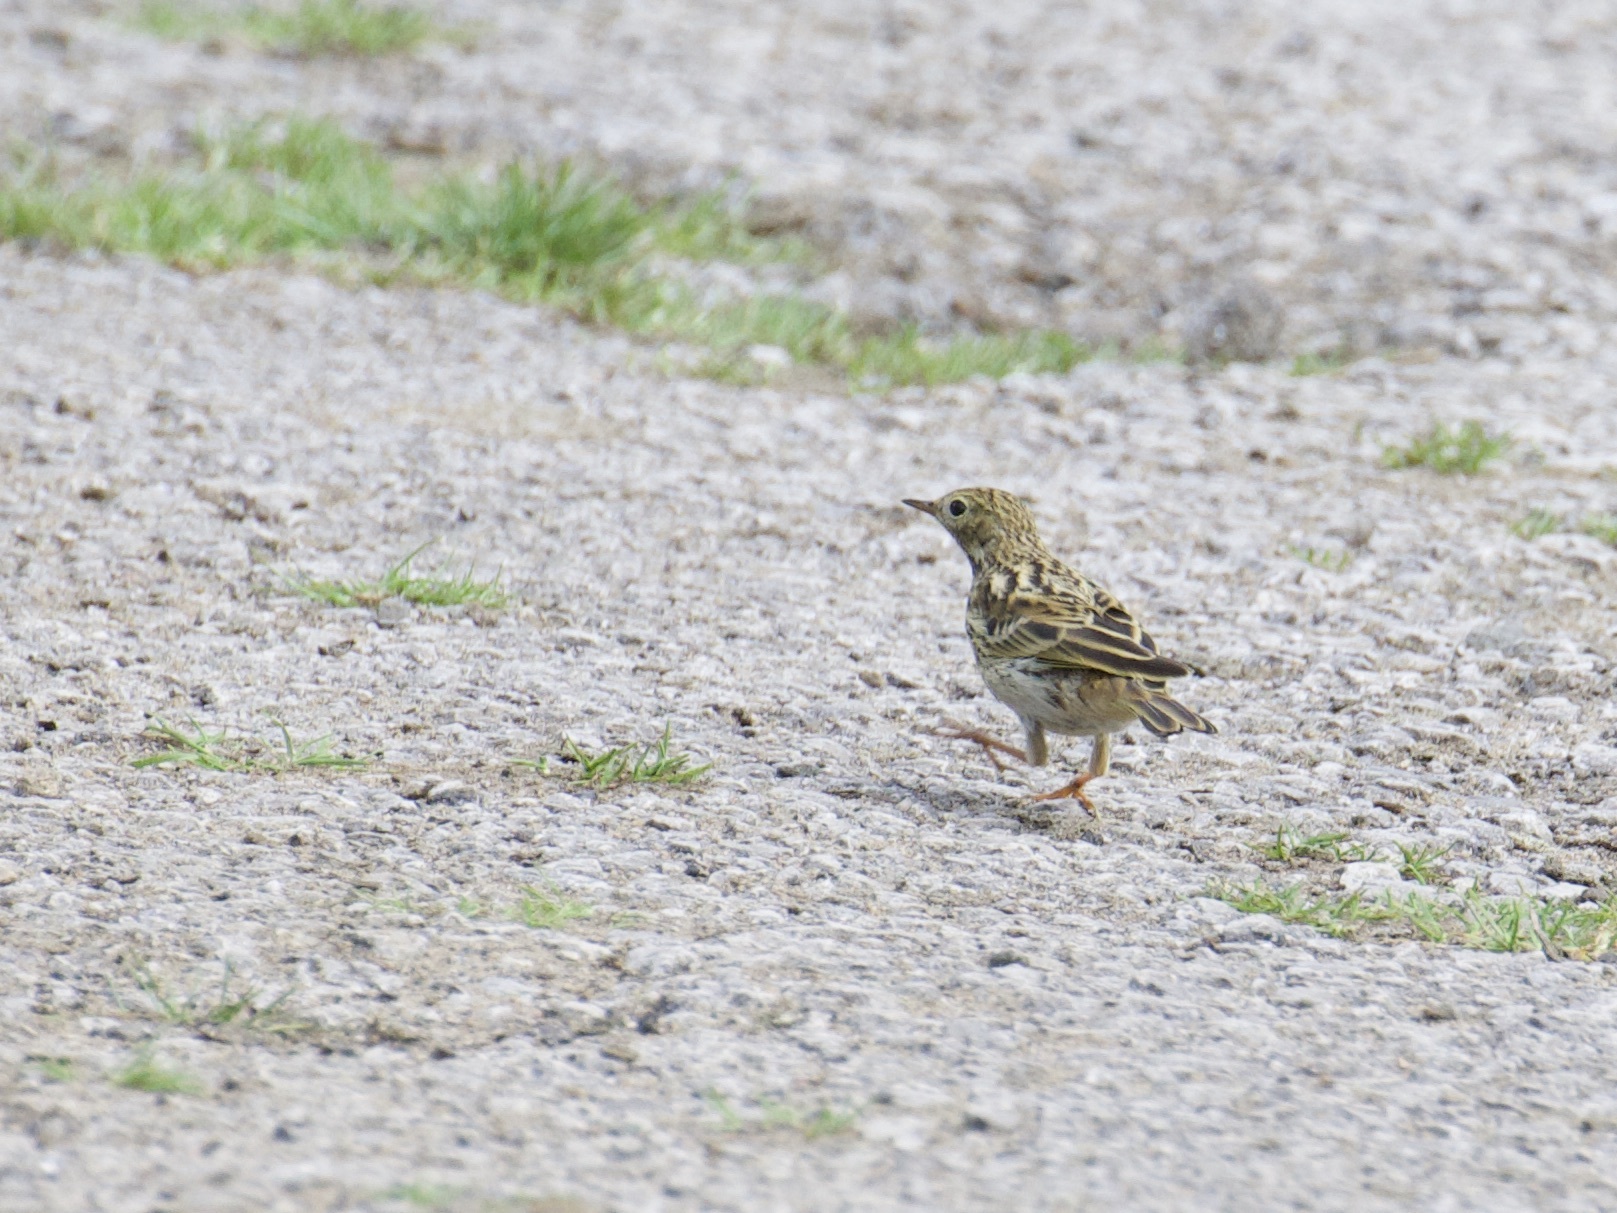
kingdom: Animalia
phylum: Chordata
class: Aves
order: Passeriformes
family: Motacillidae
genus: Anthus
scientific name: Anthus pratensis
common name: Meadow pipit
